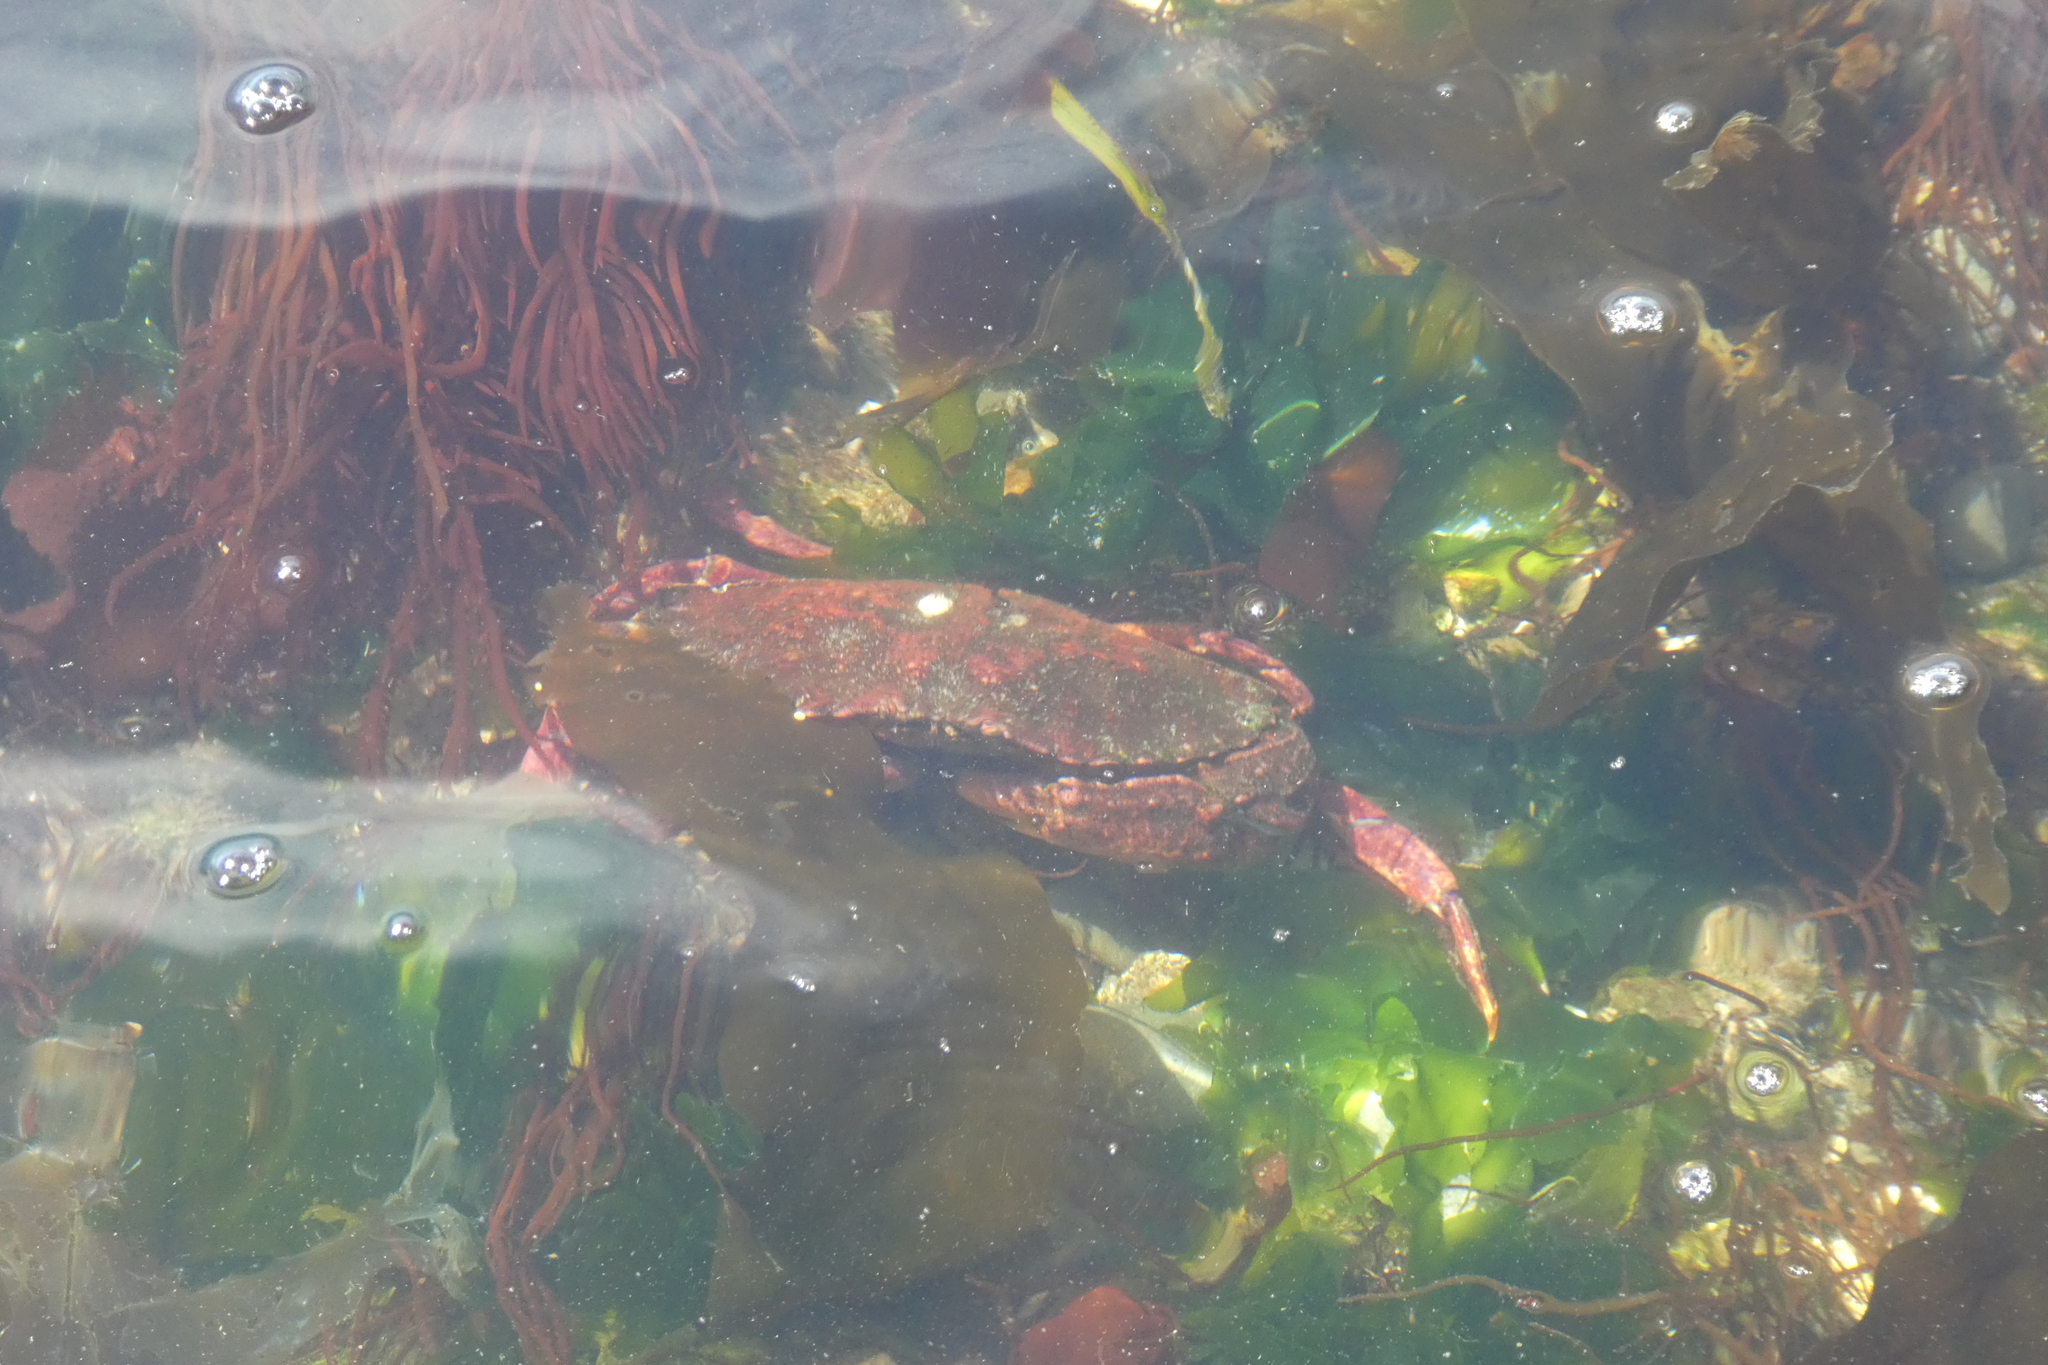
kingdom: Animalia
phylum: Arthropoda
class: Malacostraca
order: Decapoda
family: Cancridae
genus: Cancer
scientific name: Cancer productus
